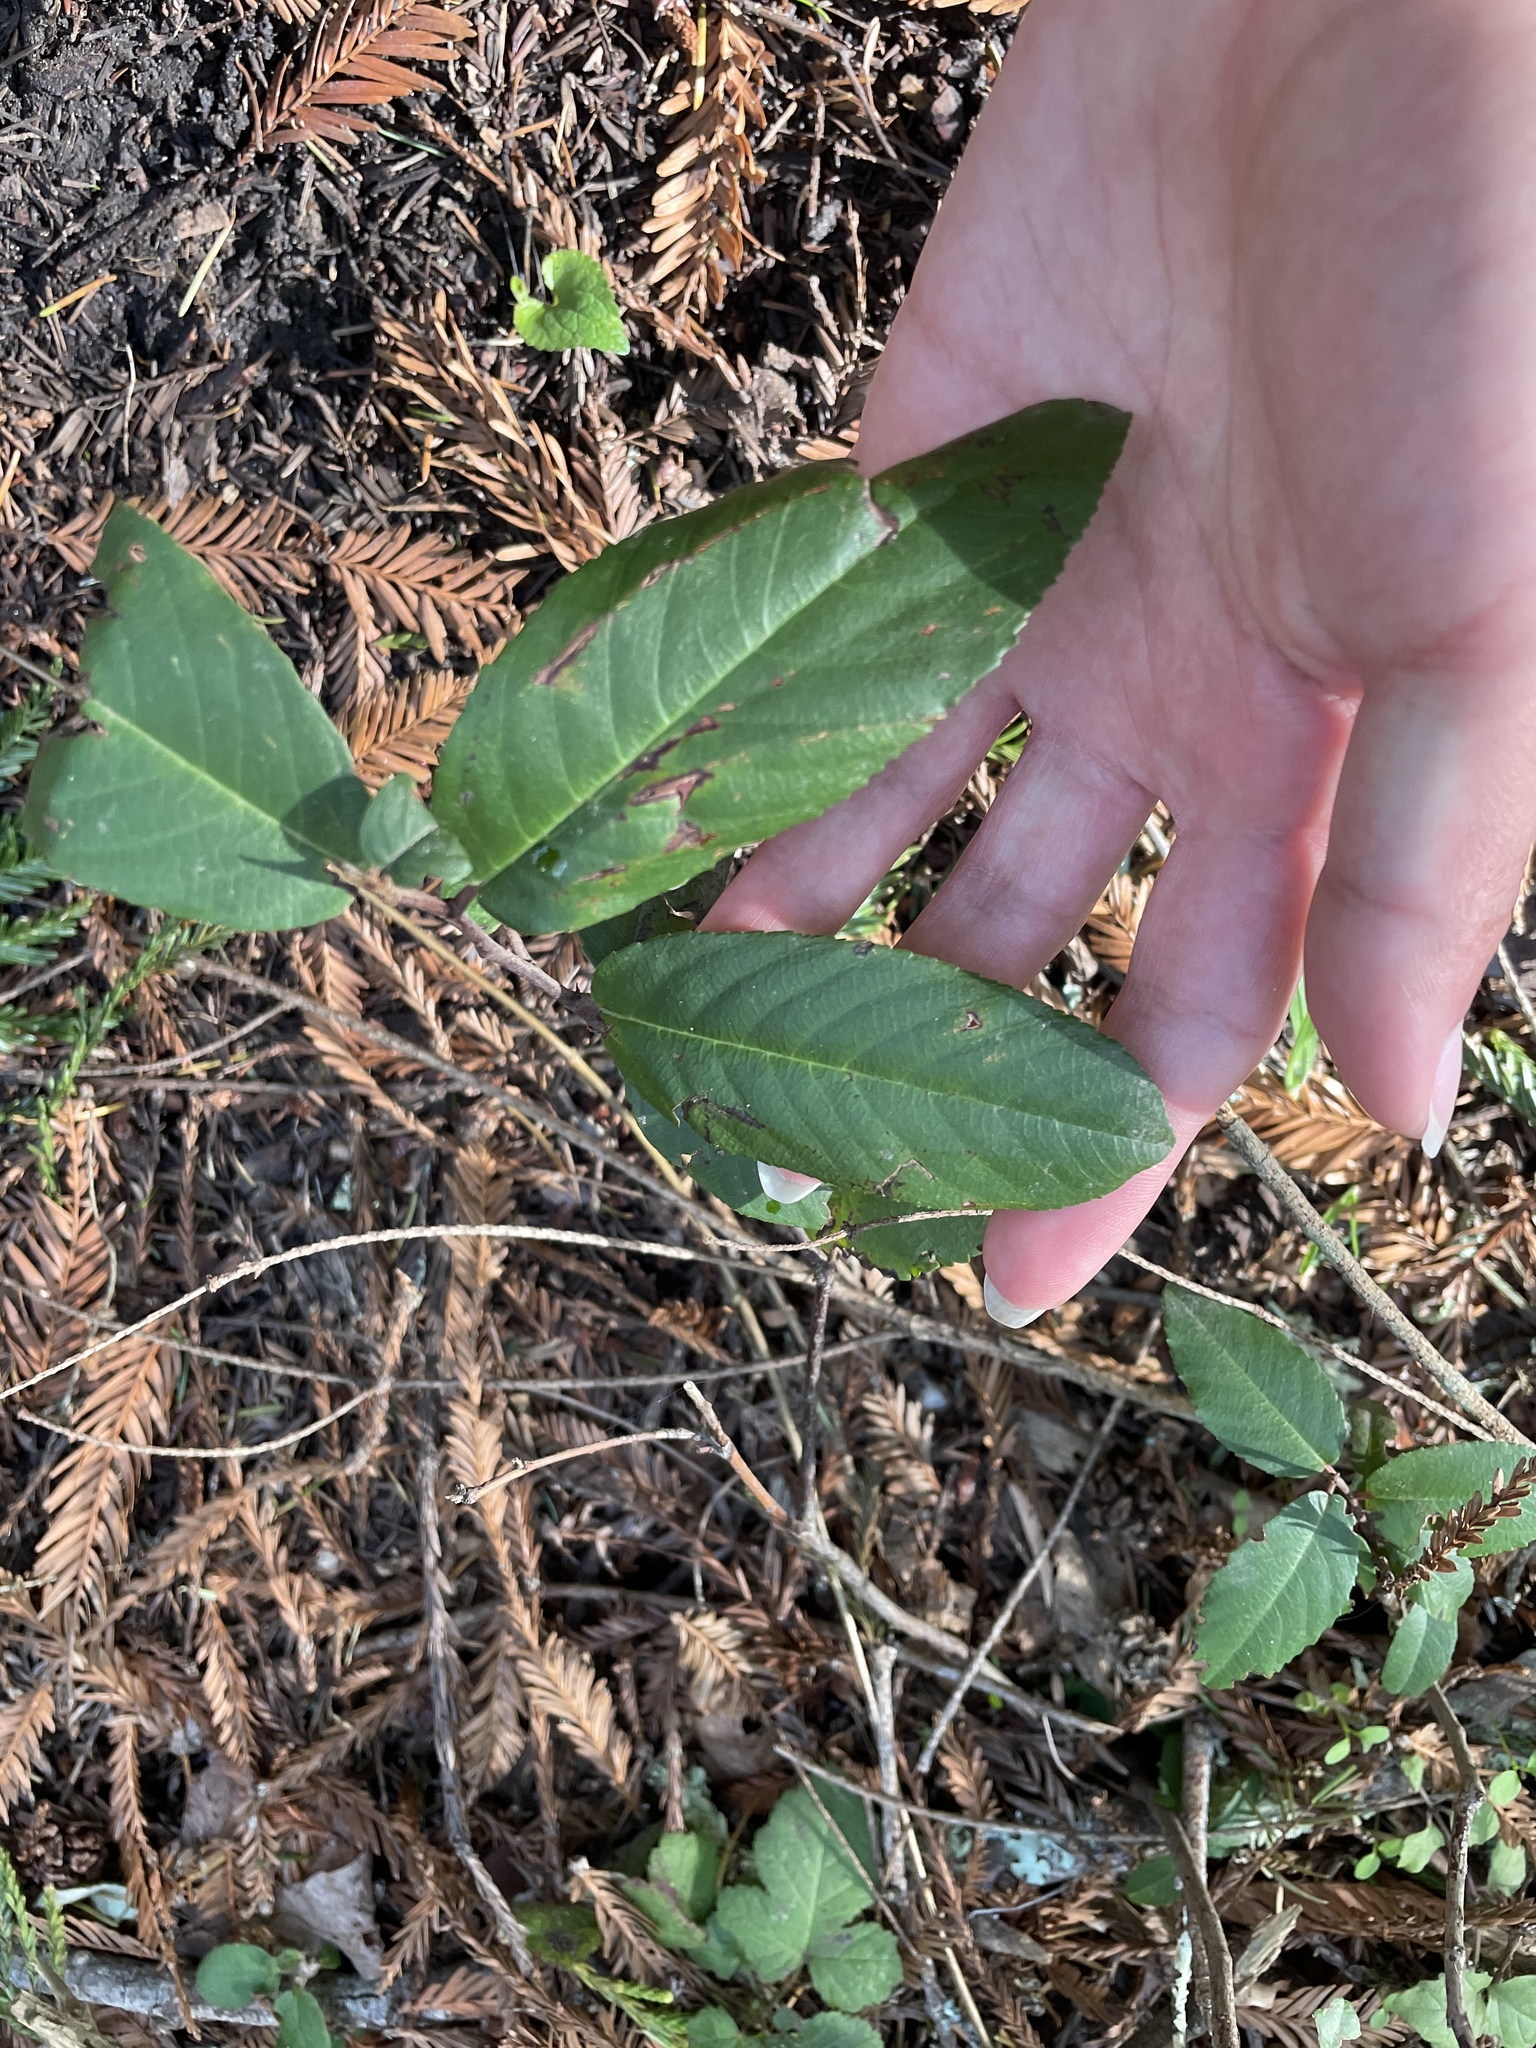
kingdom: Plantae
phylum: Tracheophyta
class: Magnoliopsida
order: Rosales
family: Rhamnaceae
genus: Frangula
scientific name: Frangula californica
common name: California buckthorn
